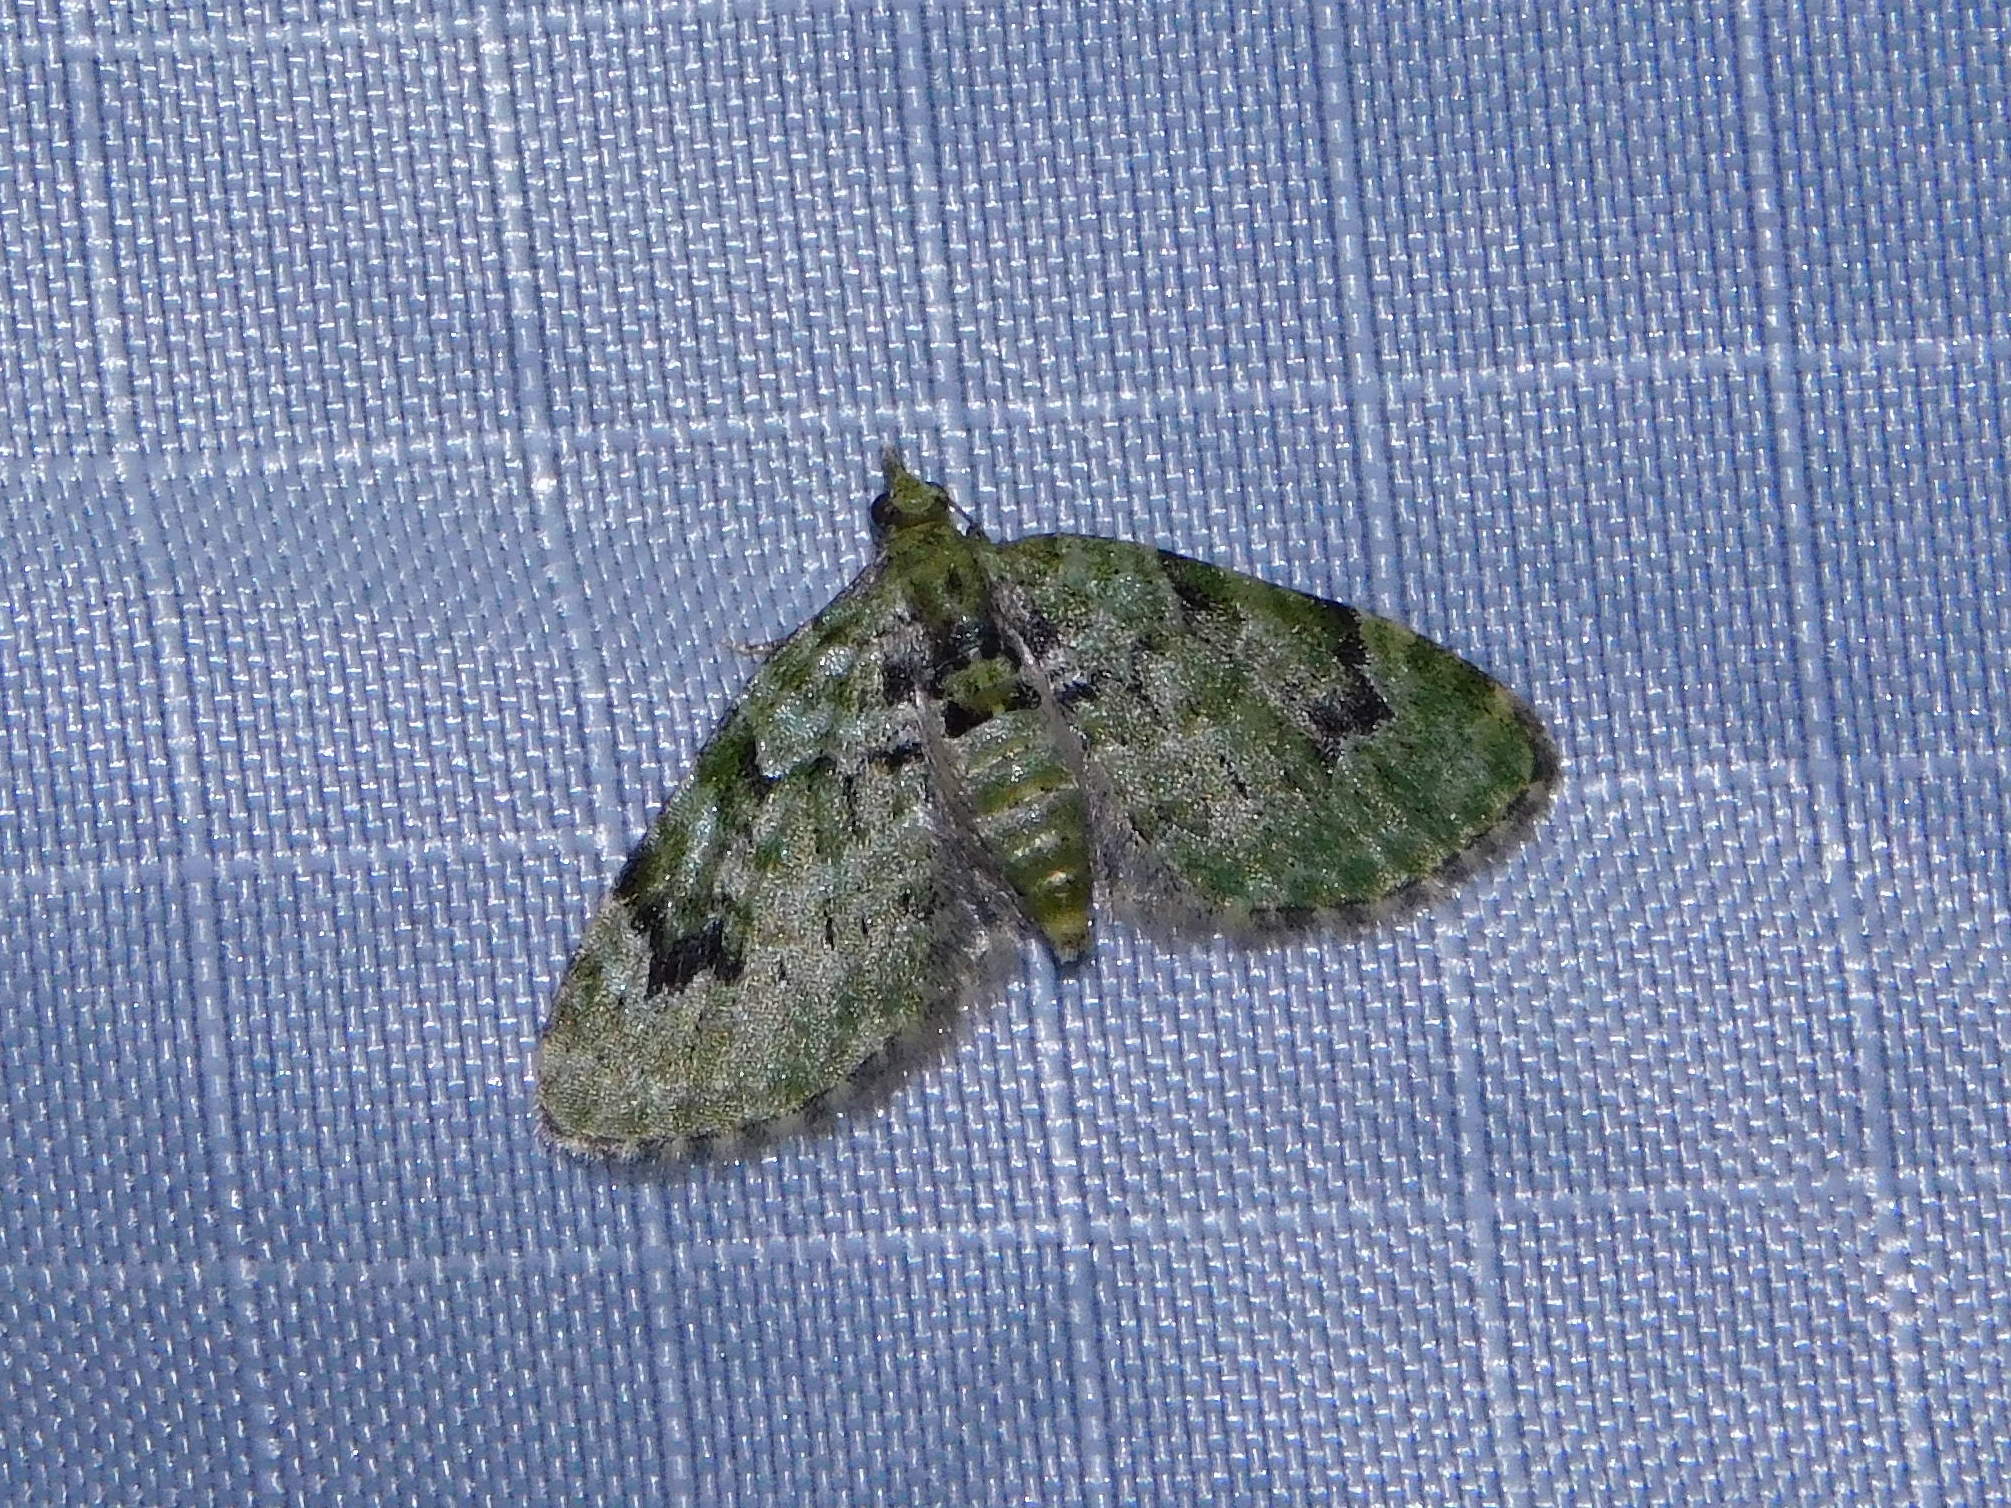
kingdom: Animalia
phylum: Arthropoda
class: Insecta
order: Lepidoptera
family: Geometridae
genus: Chloroclystis
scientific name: Chloroclystis v-ata
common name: V-pug
